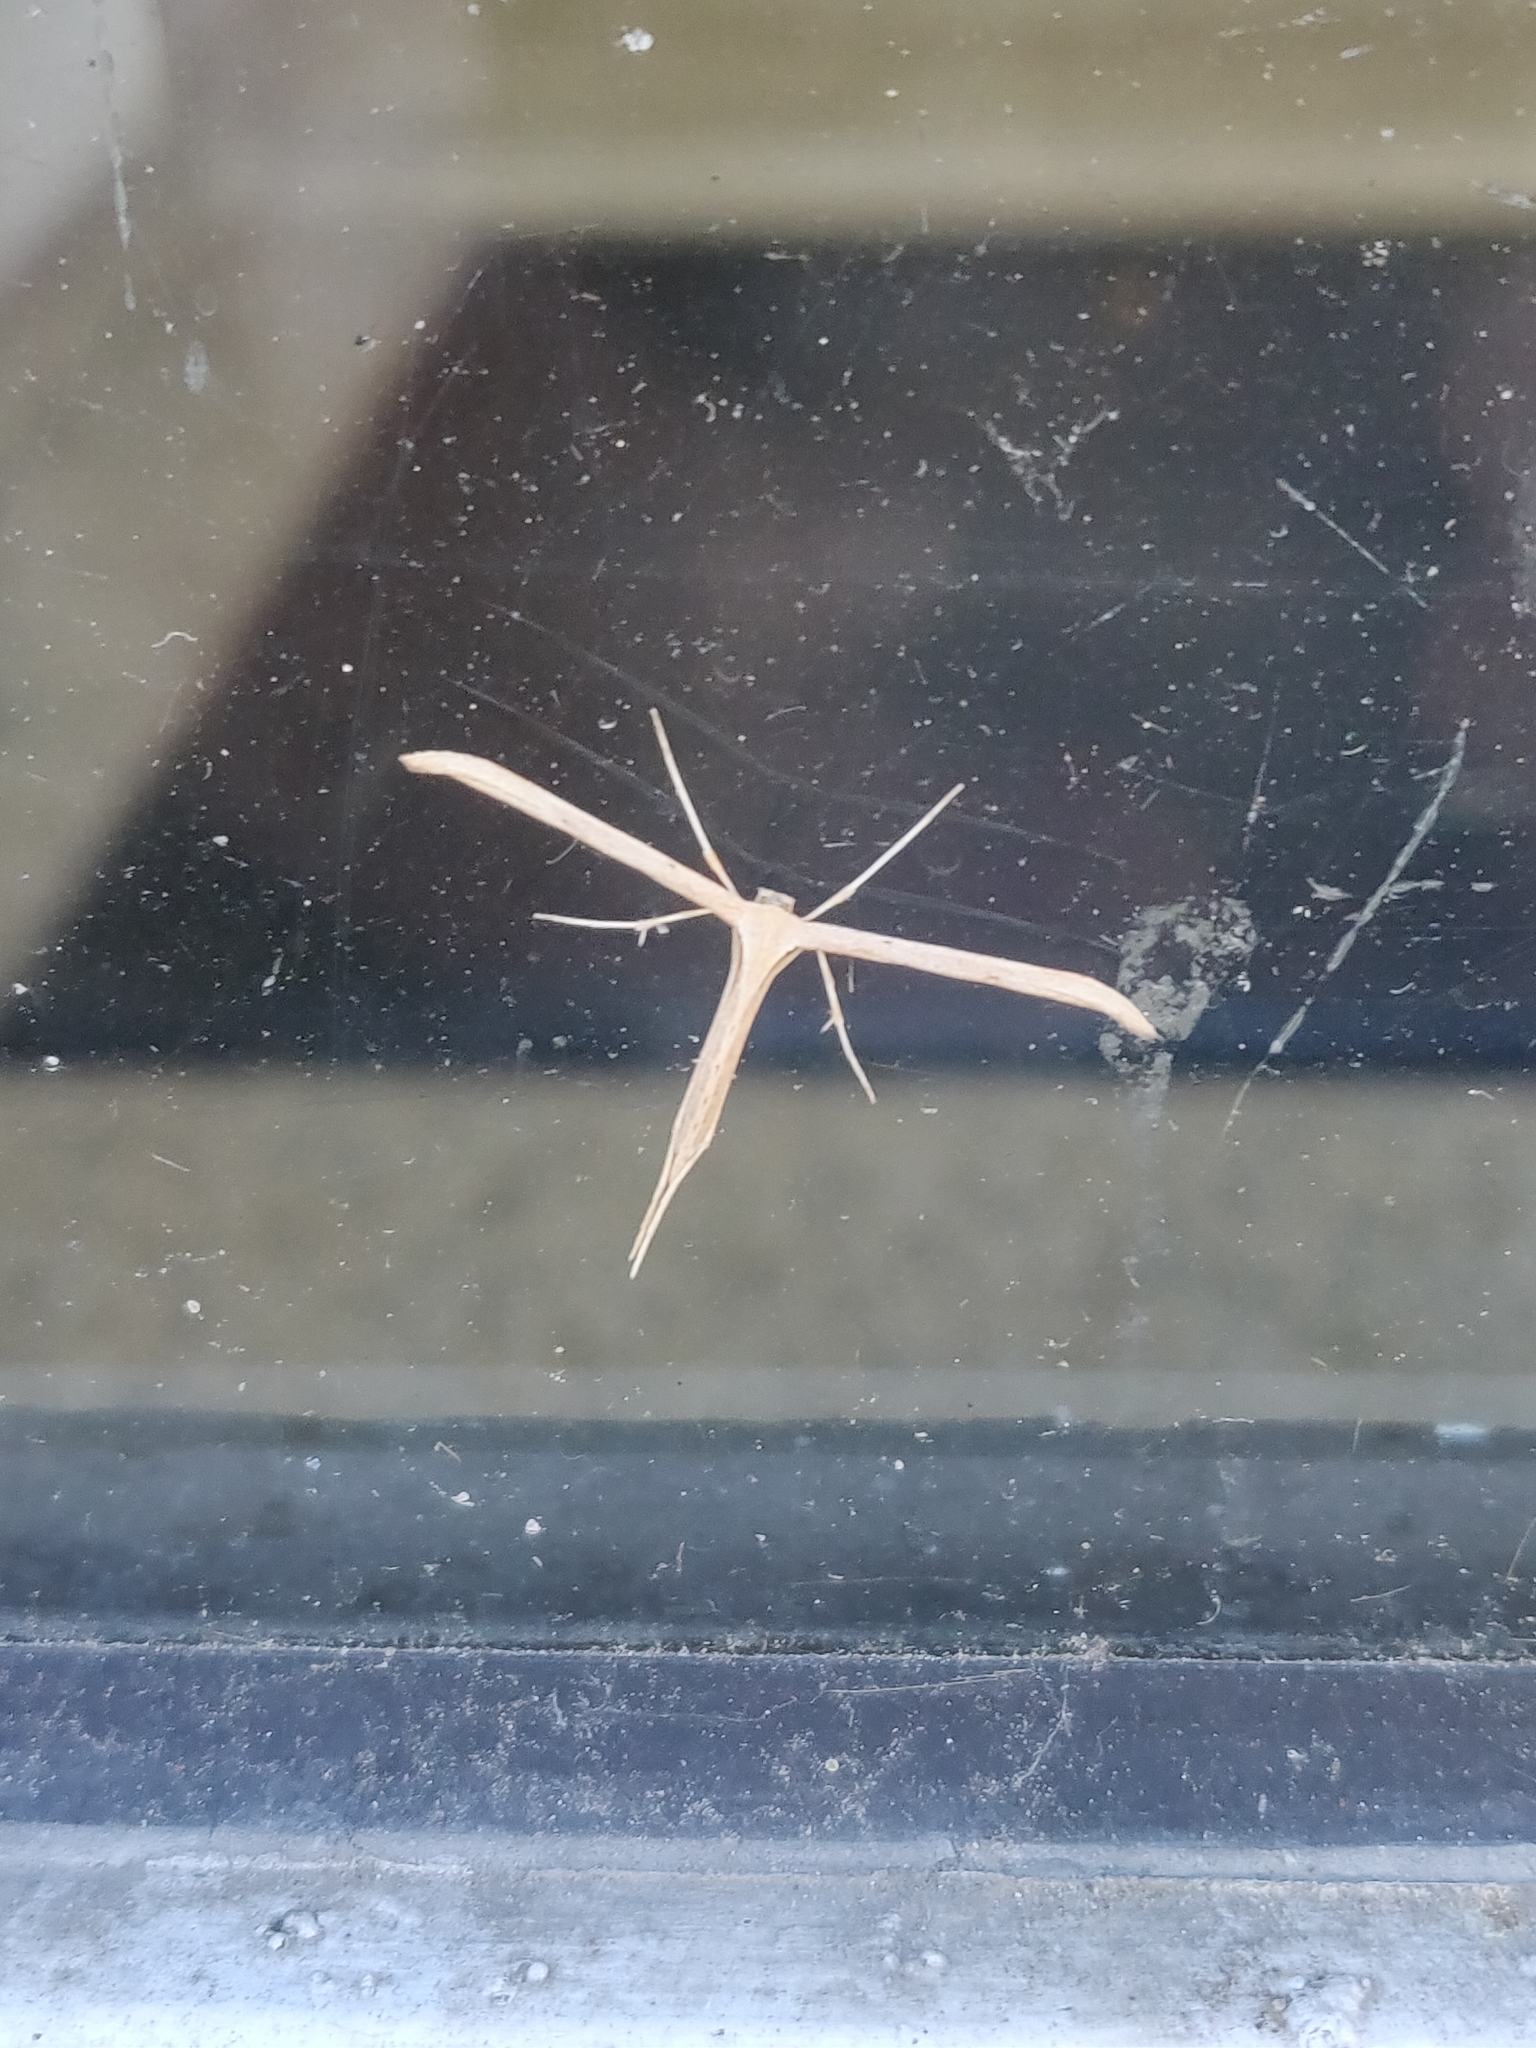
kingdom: Animalia
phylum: Arthropoda
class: Insecta
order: Lepidoptera
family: Pterophoridae
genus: Emmelina
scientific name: Emmelina monodactyla
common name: Common plume
